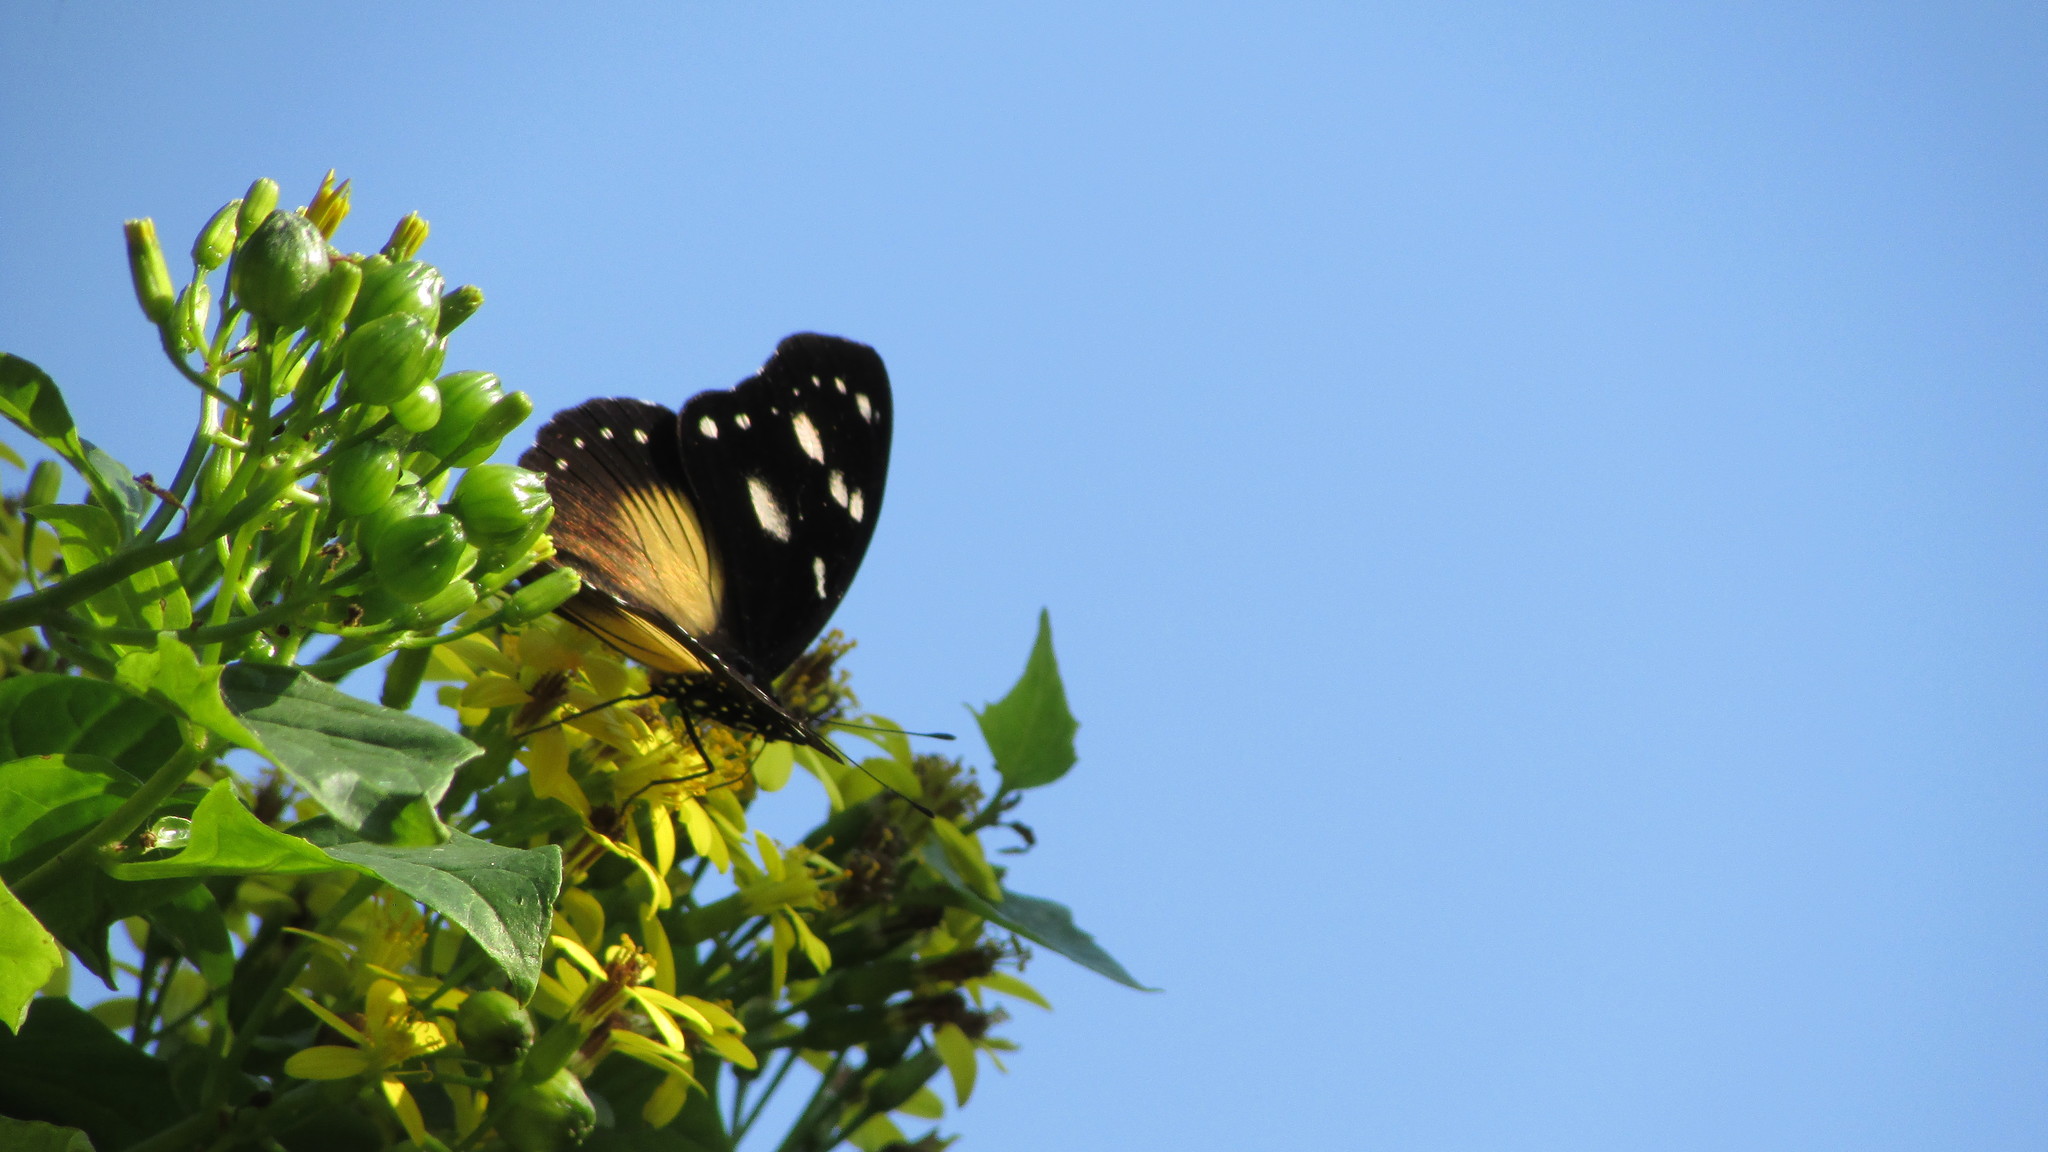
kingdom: Animalia
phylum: Arthropoda
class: Insecta
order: Lepidoptera
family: Nymphalidae
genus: Hypolimnas
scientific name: Hypolimnas dubius
